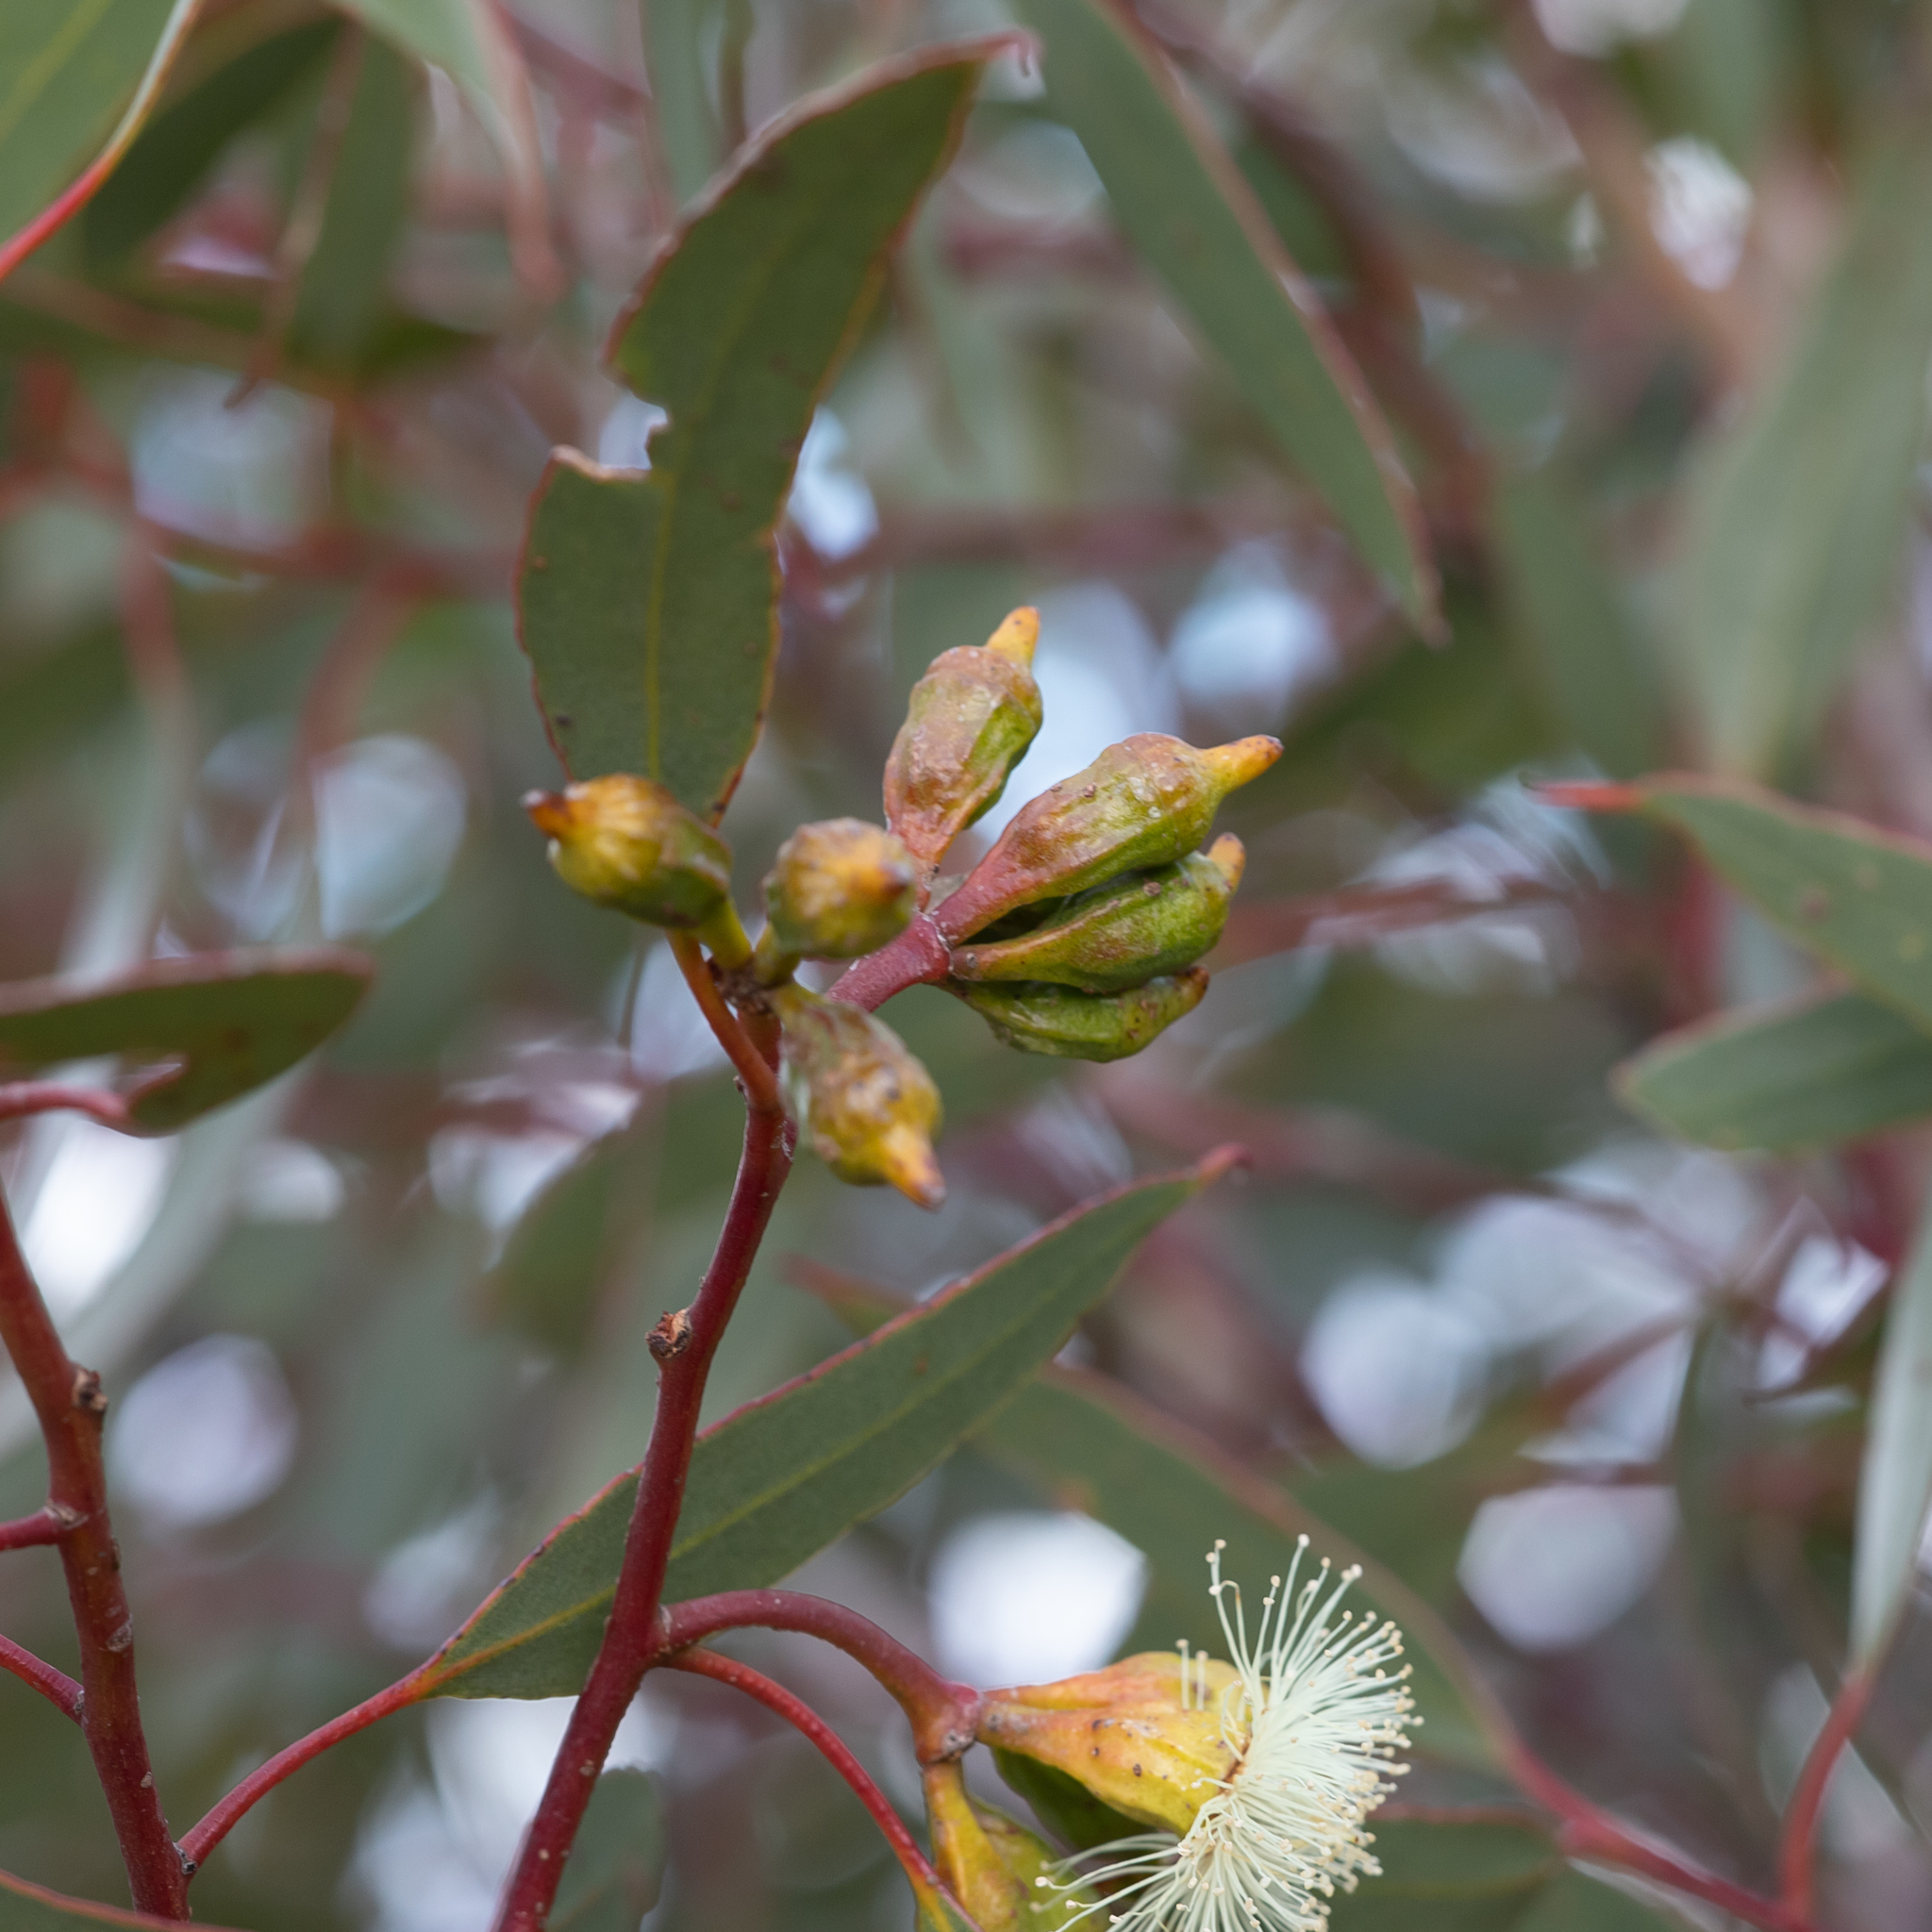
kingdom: Plantae
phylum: Tracheophyta
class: Magnoliopsida
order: Myrtales
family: Myrtaceae
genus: Eucalyptus
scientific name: Eucalyptus incrassata
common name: Ridge-fruit mallee
